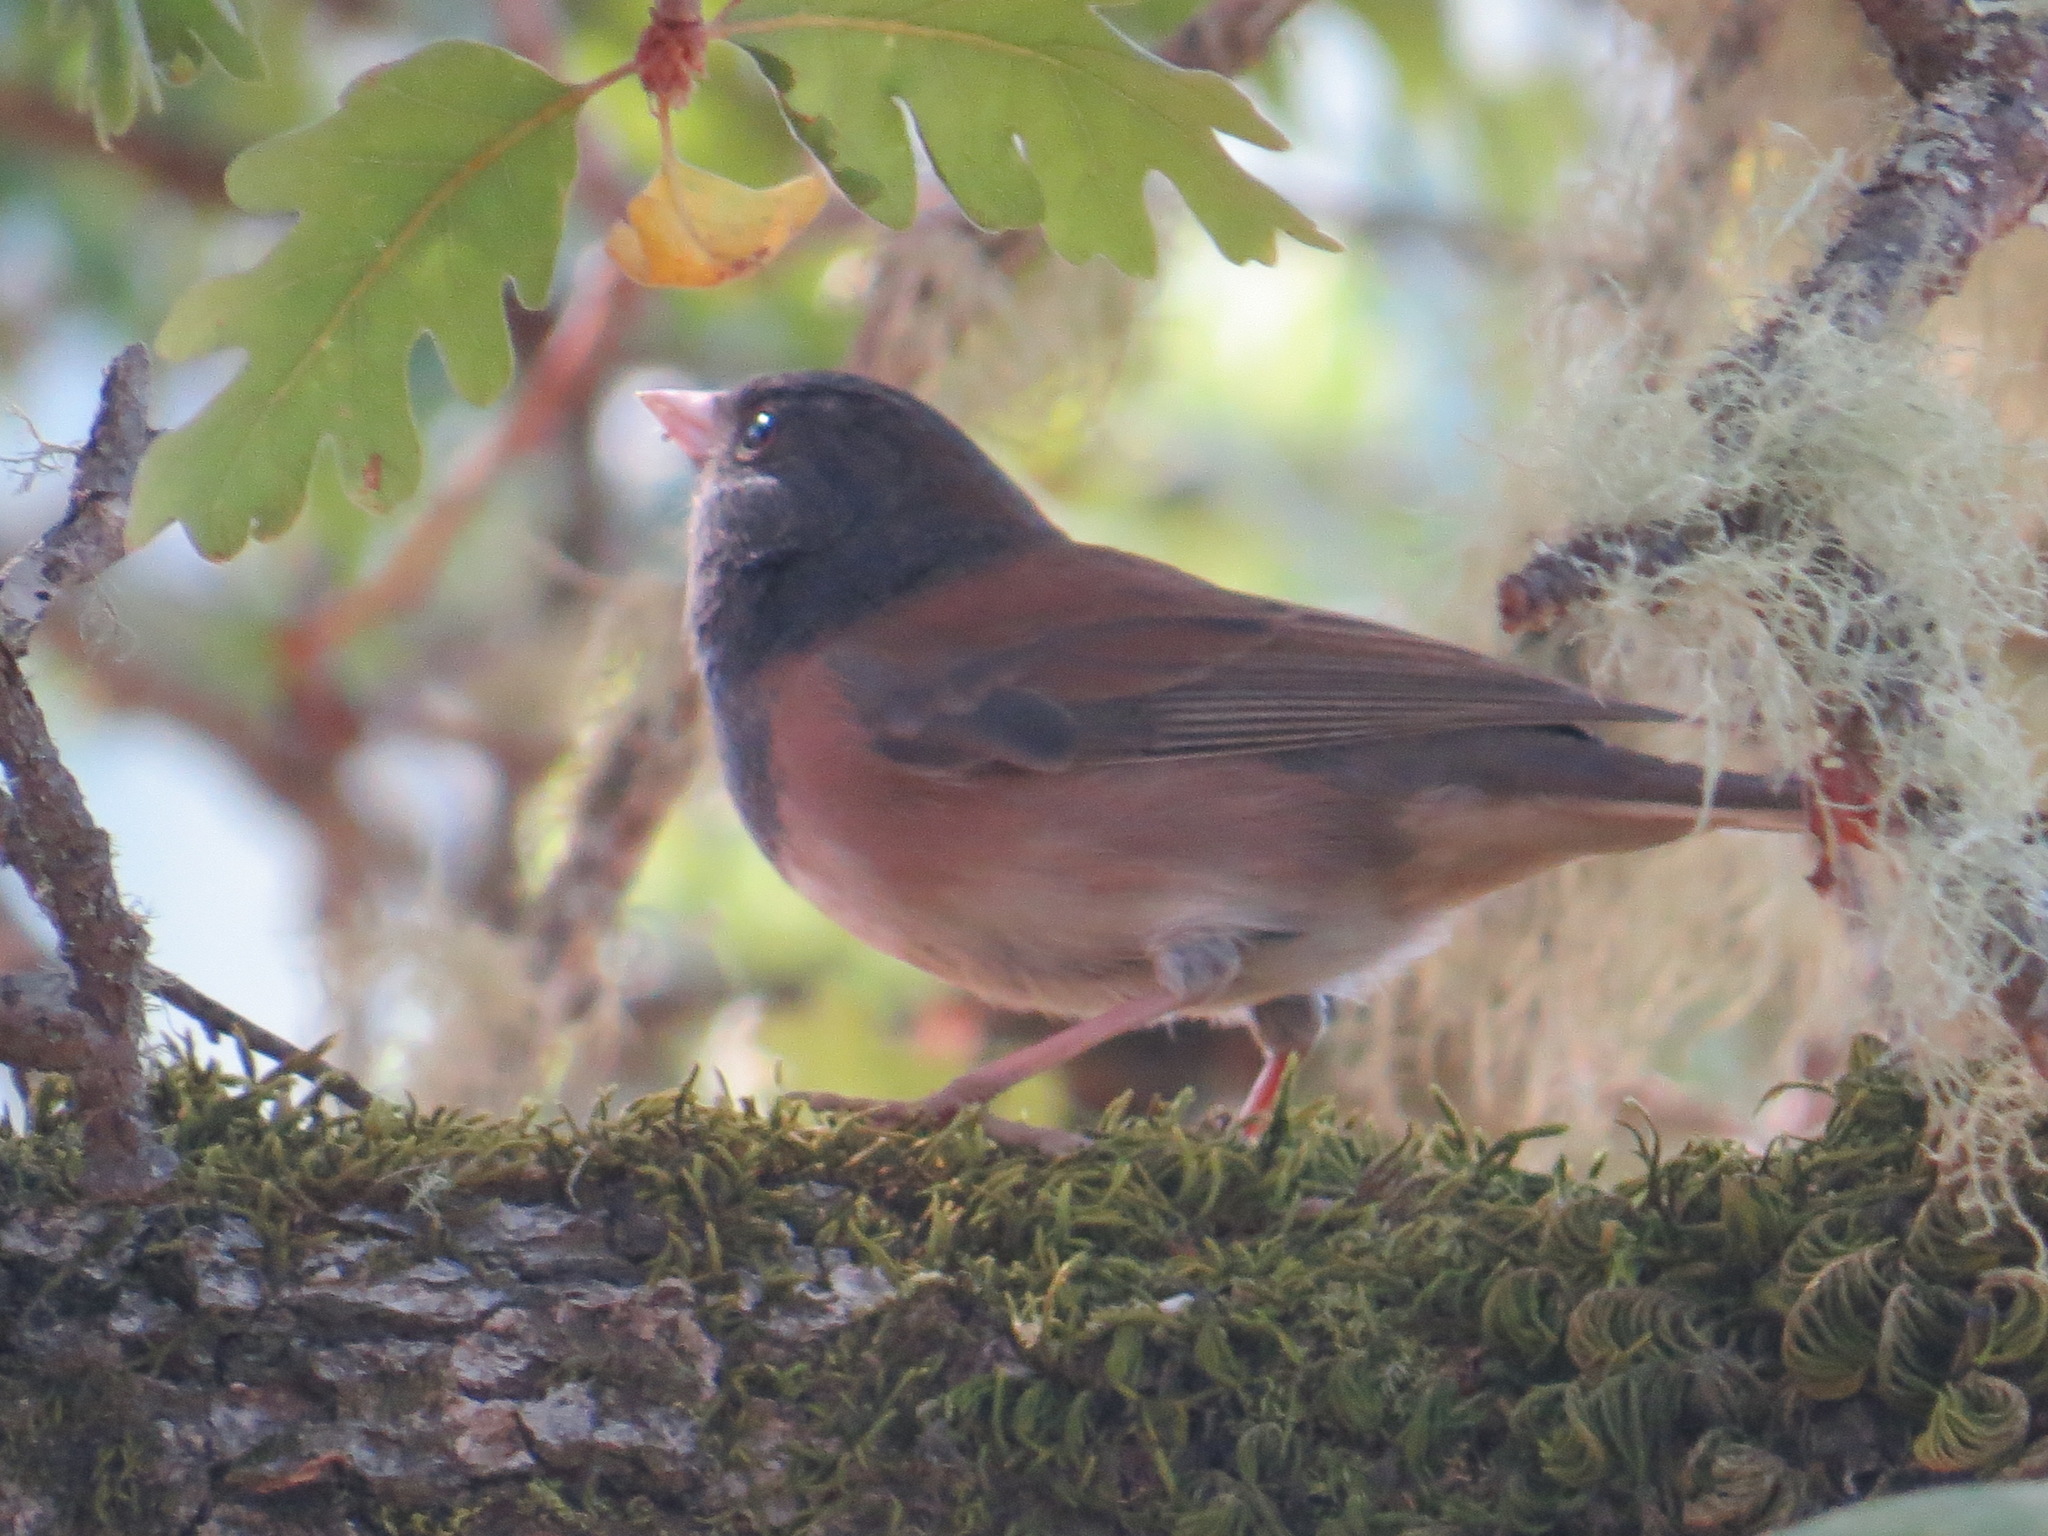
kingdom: Animalia
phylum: Chordata
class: Aves
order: Passeriformes
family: Passerellidae
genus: Junco
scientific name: Junco hyemalis
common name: Dark-eyed junco
